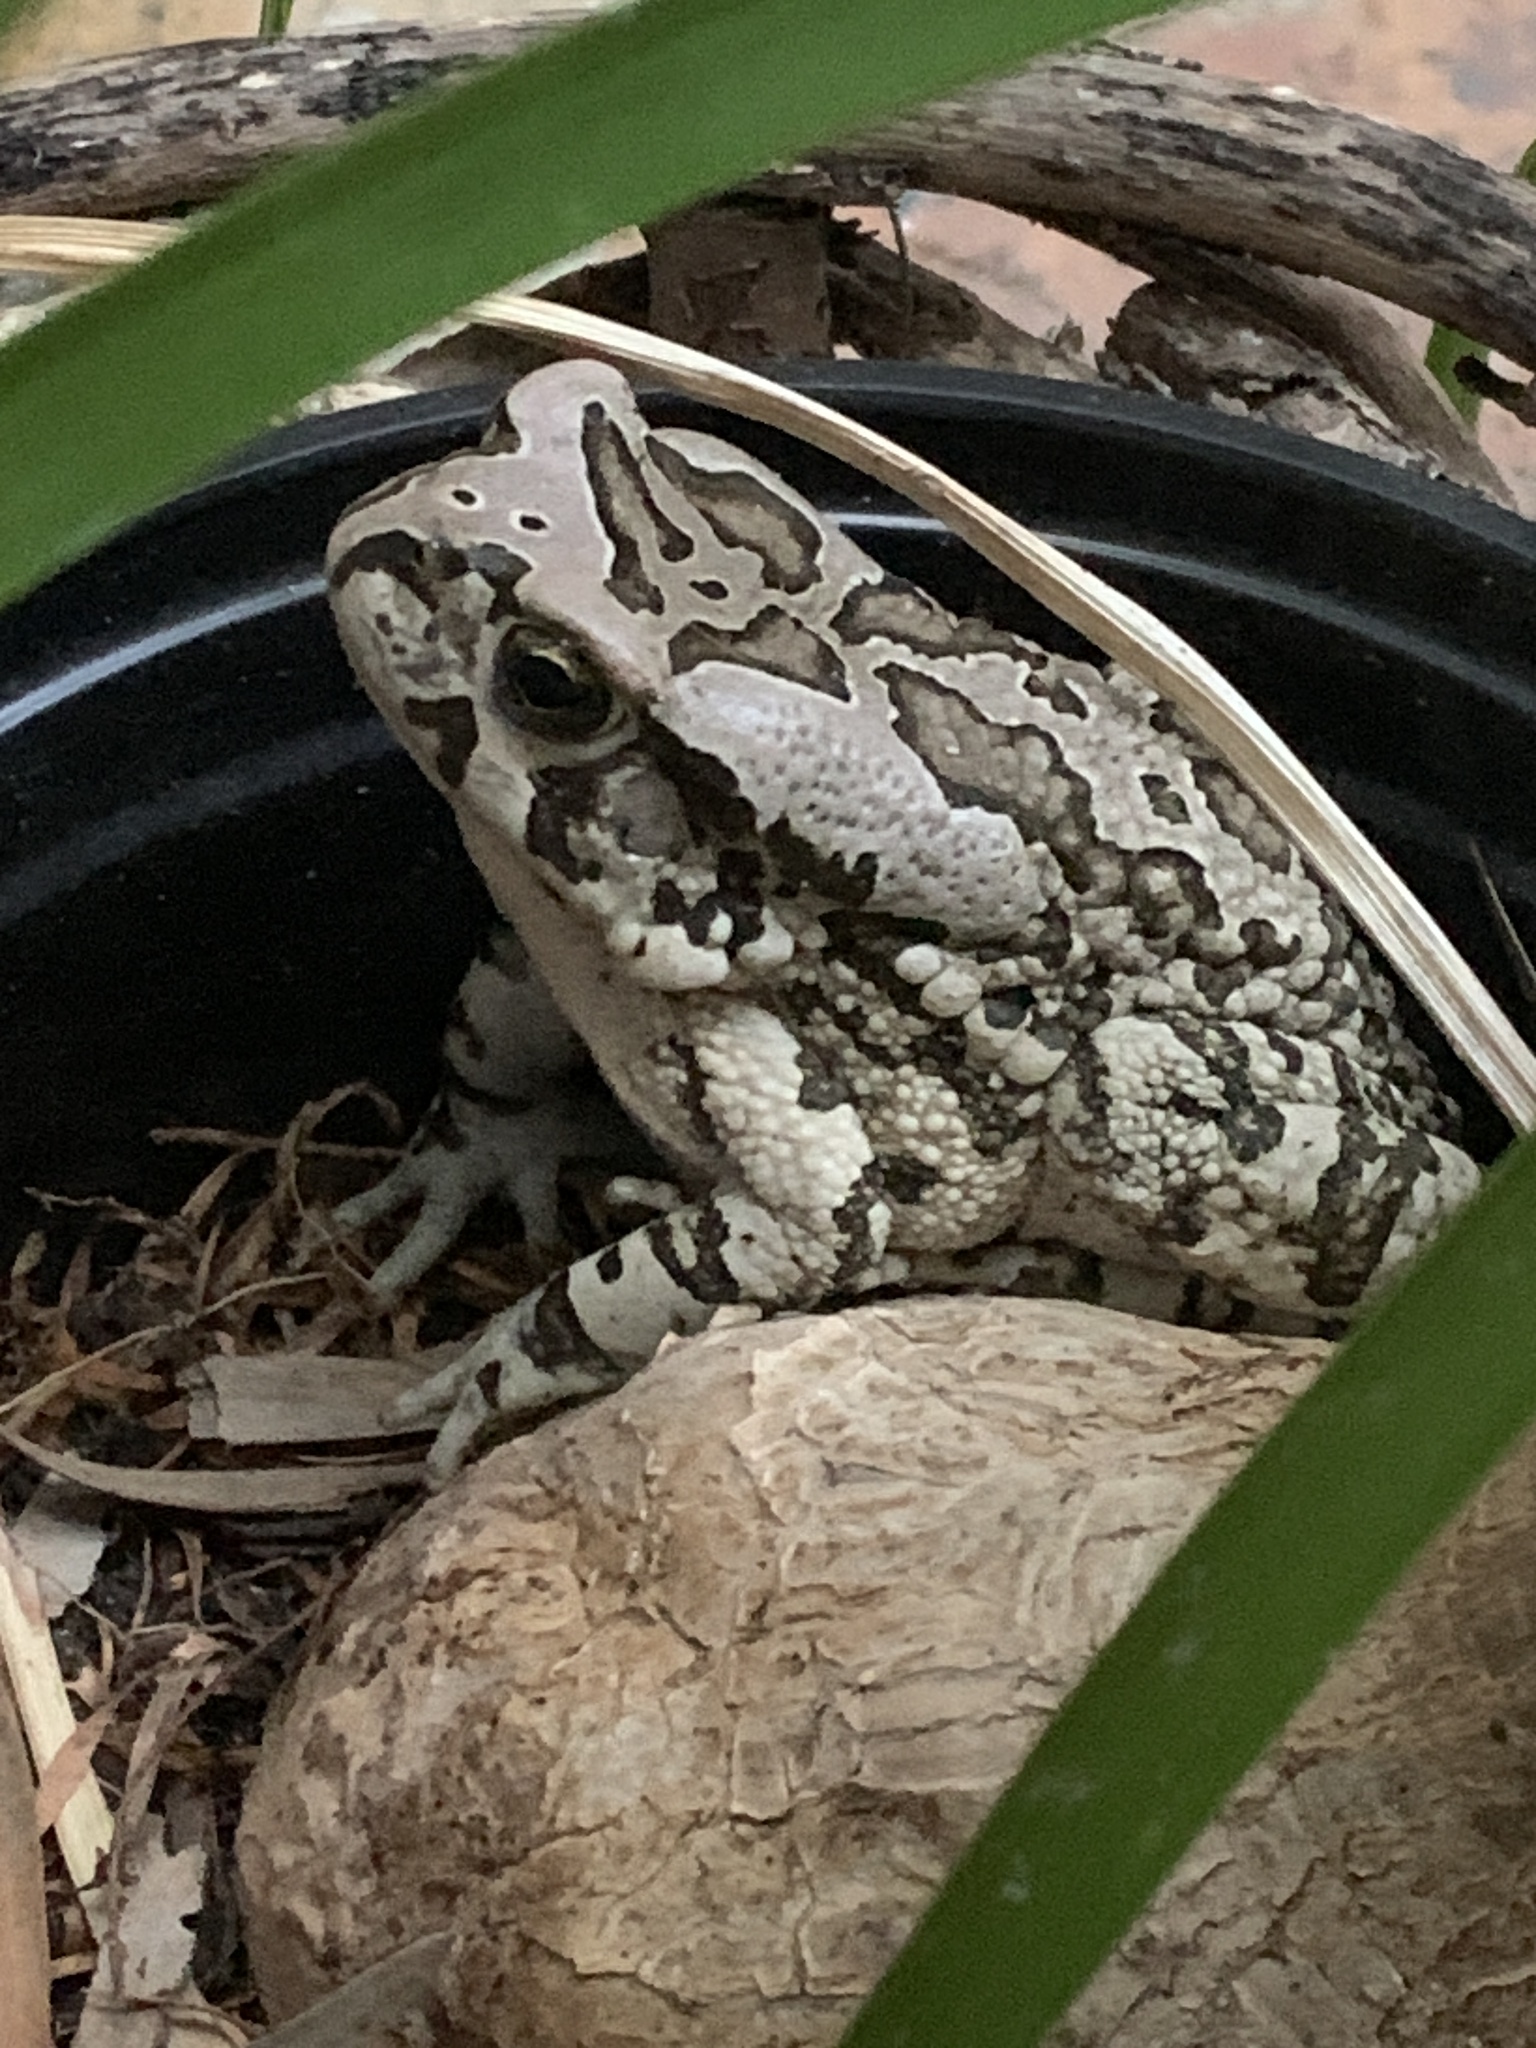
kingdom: Animalia
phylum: Chordata
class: Amphibia
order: Anura
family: Bufonidae
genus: Sclerophrys
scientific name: Sclerophrys capensis
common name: Ranger’s toad
